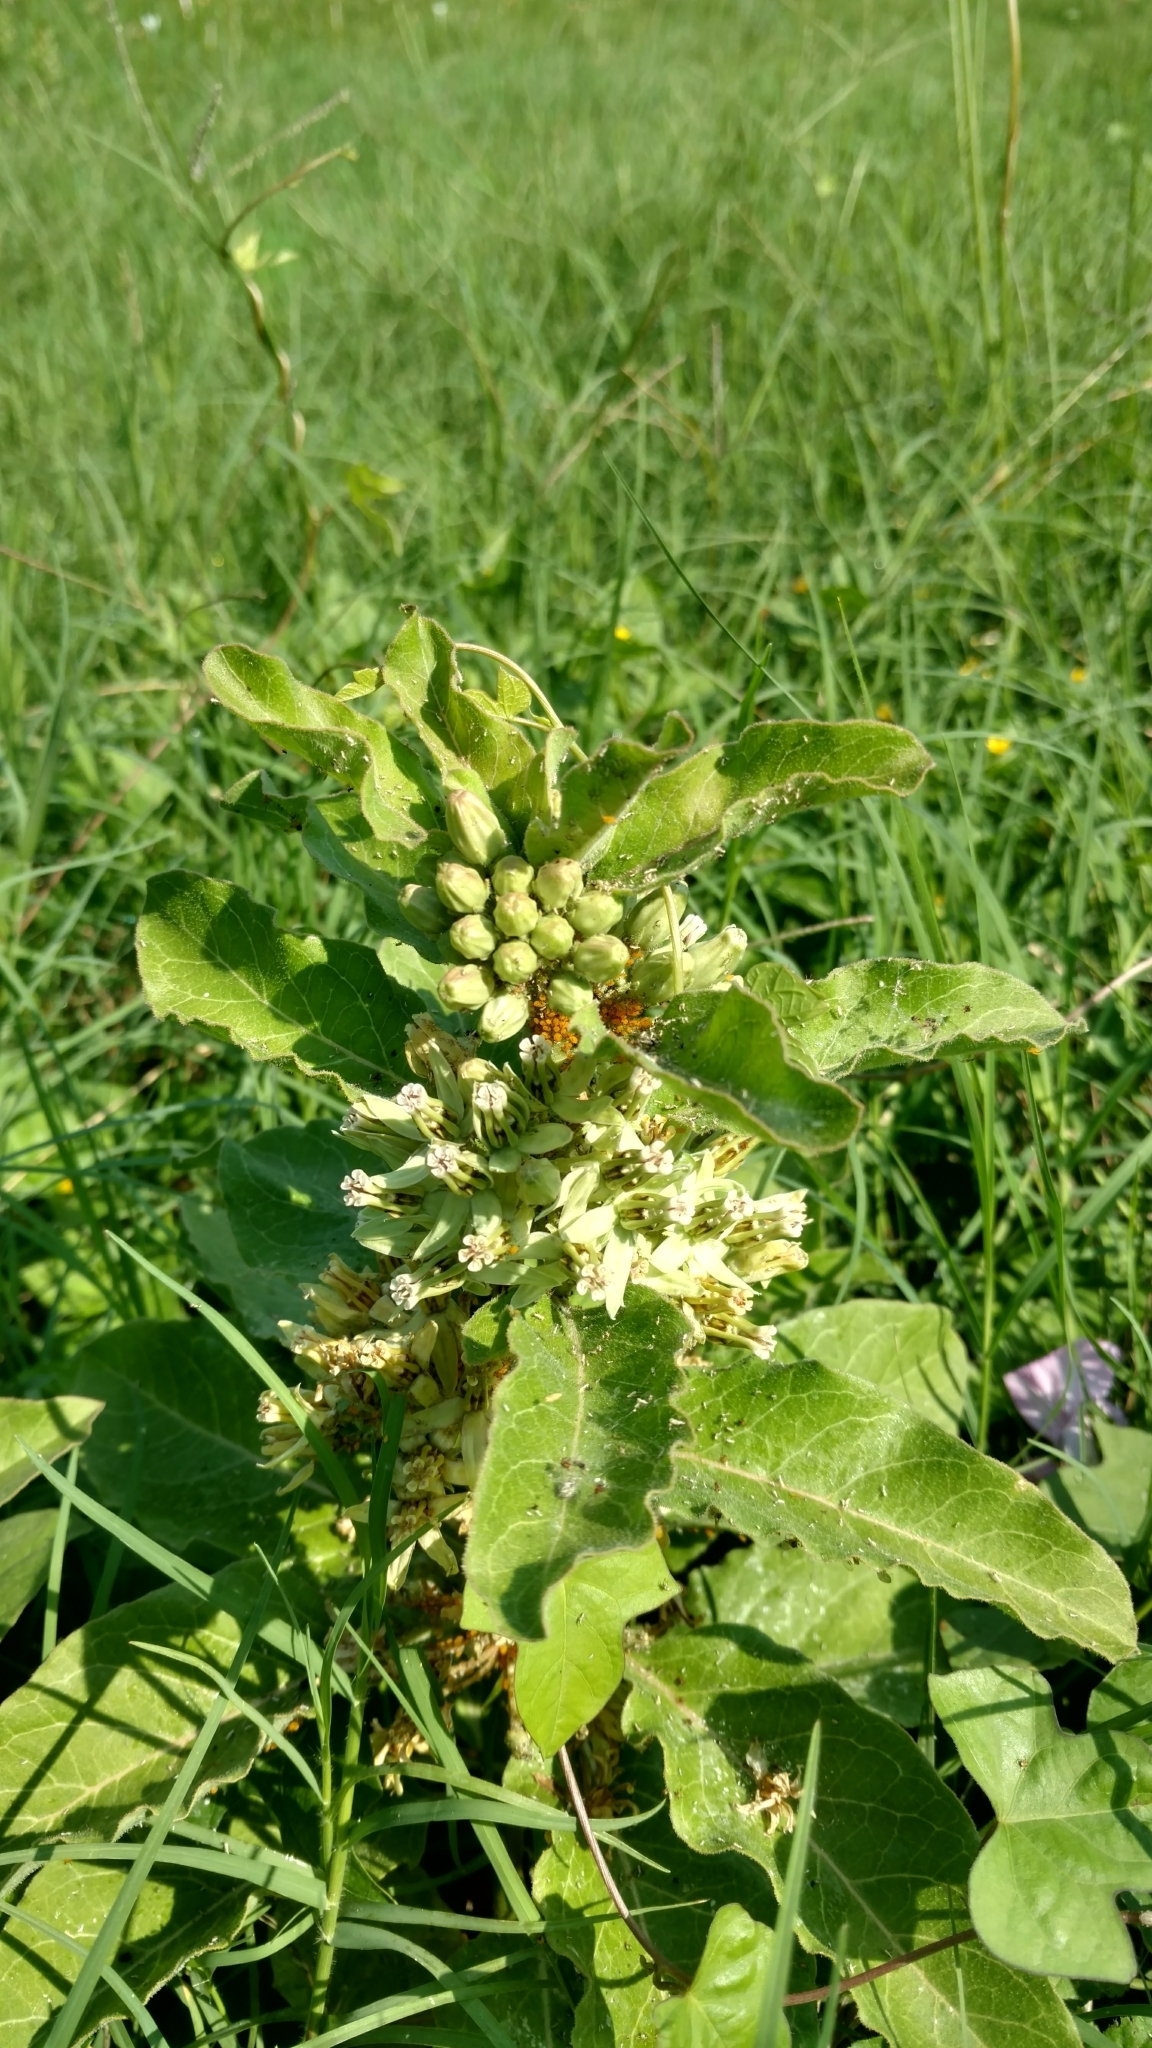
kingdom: Plantae
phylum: Tracheophyta
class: Magnoliopsida
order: Gentianales
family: Apocynaceae
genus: Asclepias
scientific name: Asclepias oenotheroides
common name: Zizotes milkweed
